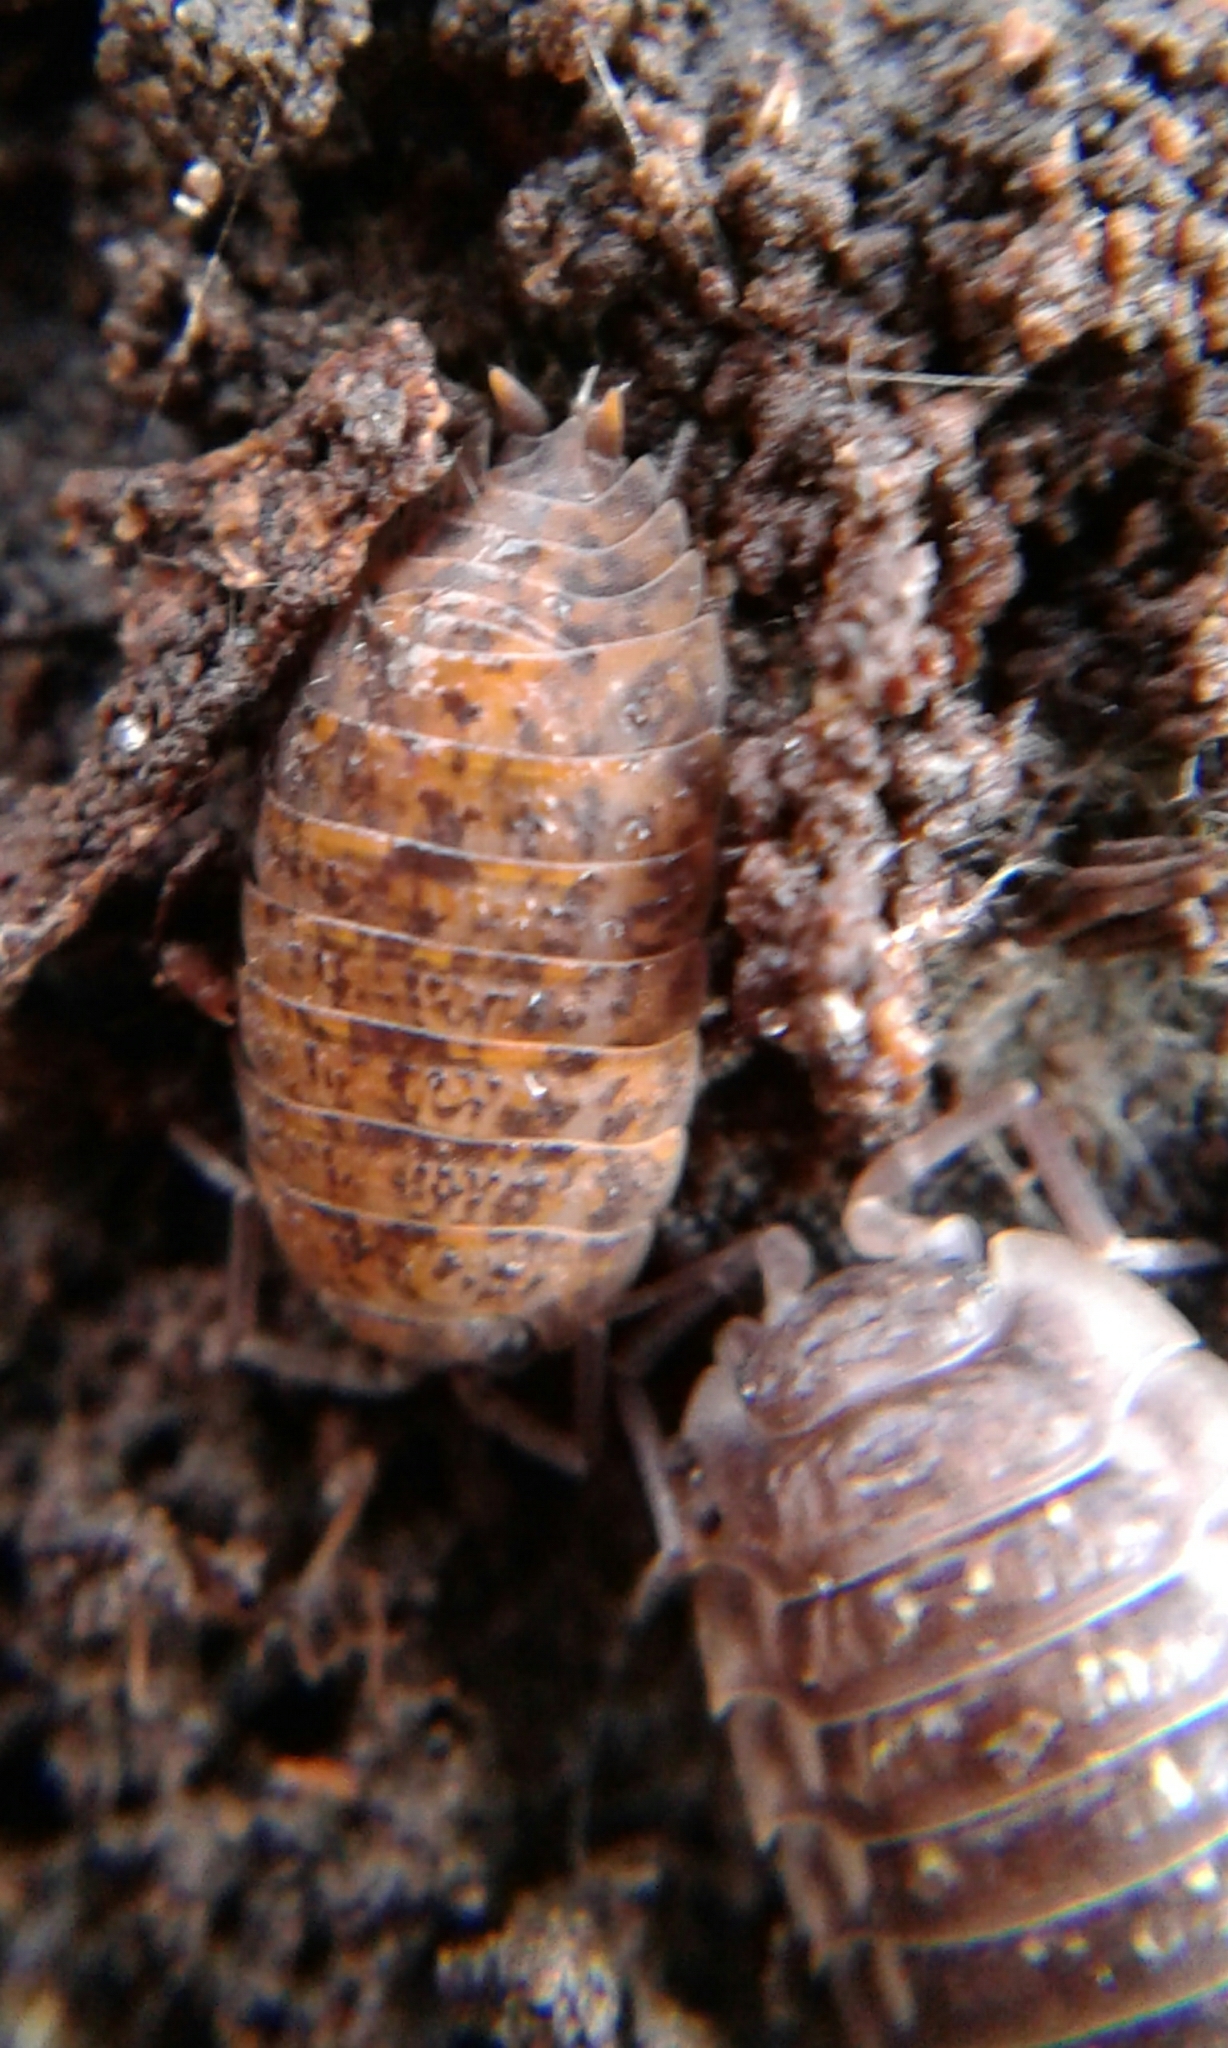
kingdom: Animalia
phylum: Arthropoda
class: Malacostraca
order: Isopoda
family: Trachelipodidae
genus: Trachelipus
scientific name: Trachelipus rathkii
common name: Isopod
